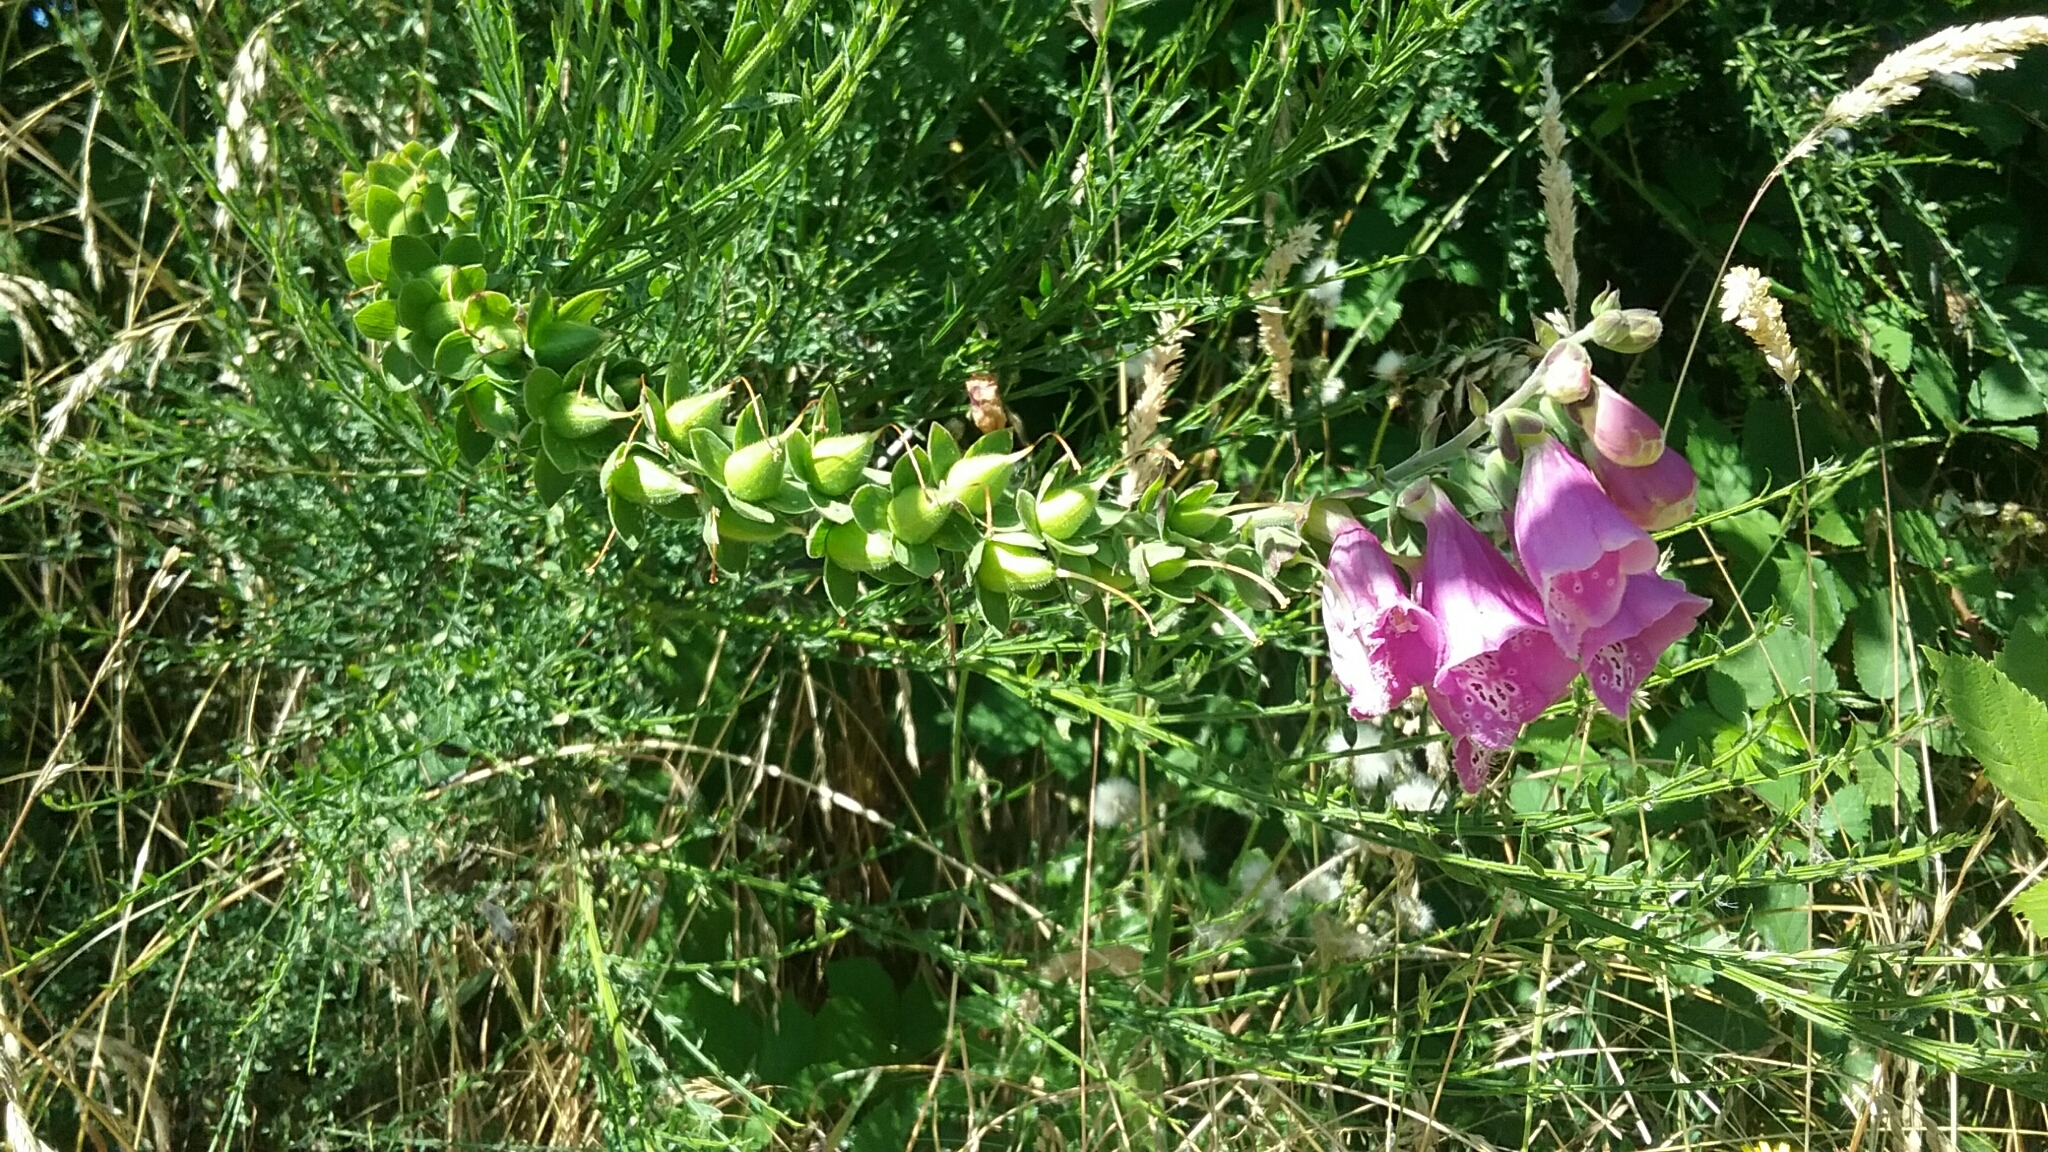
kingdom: Plantae
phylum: Tracheophyta
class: Magnoliopsida
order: Lamiales
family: Plantaginaceae
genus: Digitalis
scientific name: Digitalis purpurea
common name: Foxglove
